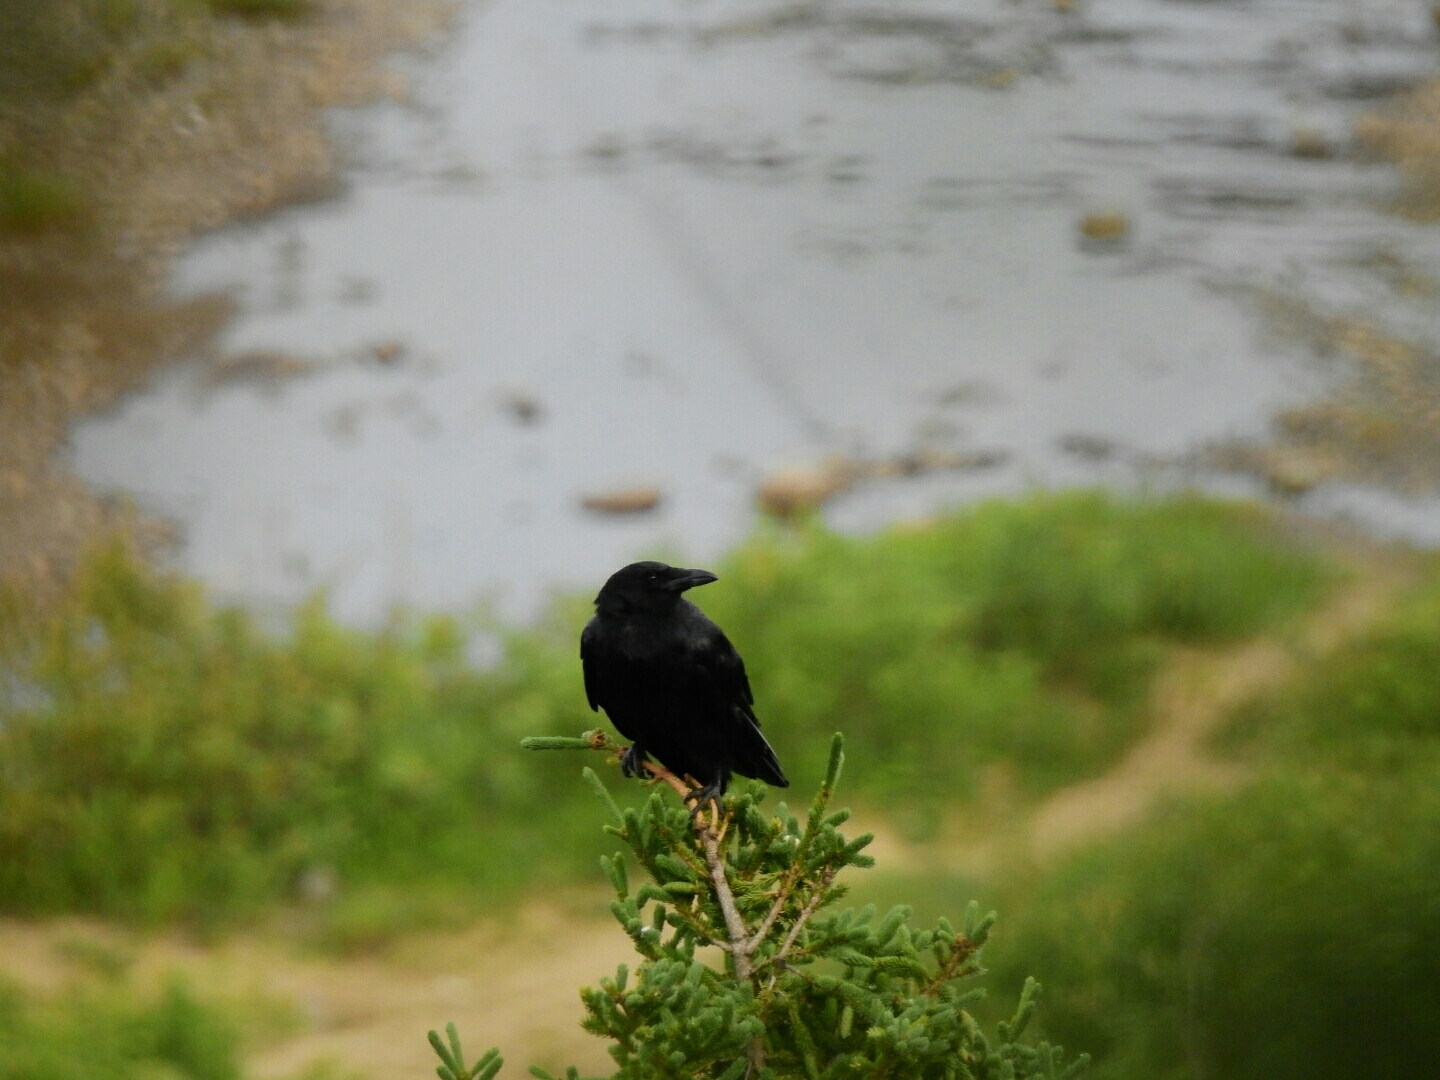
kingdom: Animalia
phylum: Chordata
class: Aves
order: Passeriformes
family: Corvidae
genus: Corvus
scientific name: Corvus brachyrhynchos
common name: American crow
